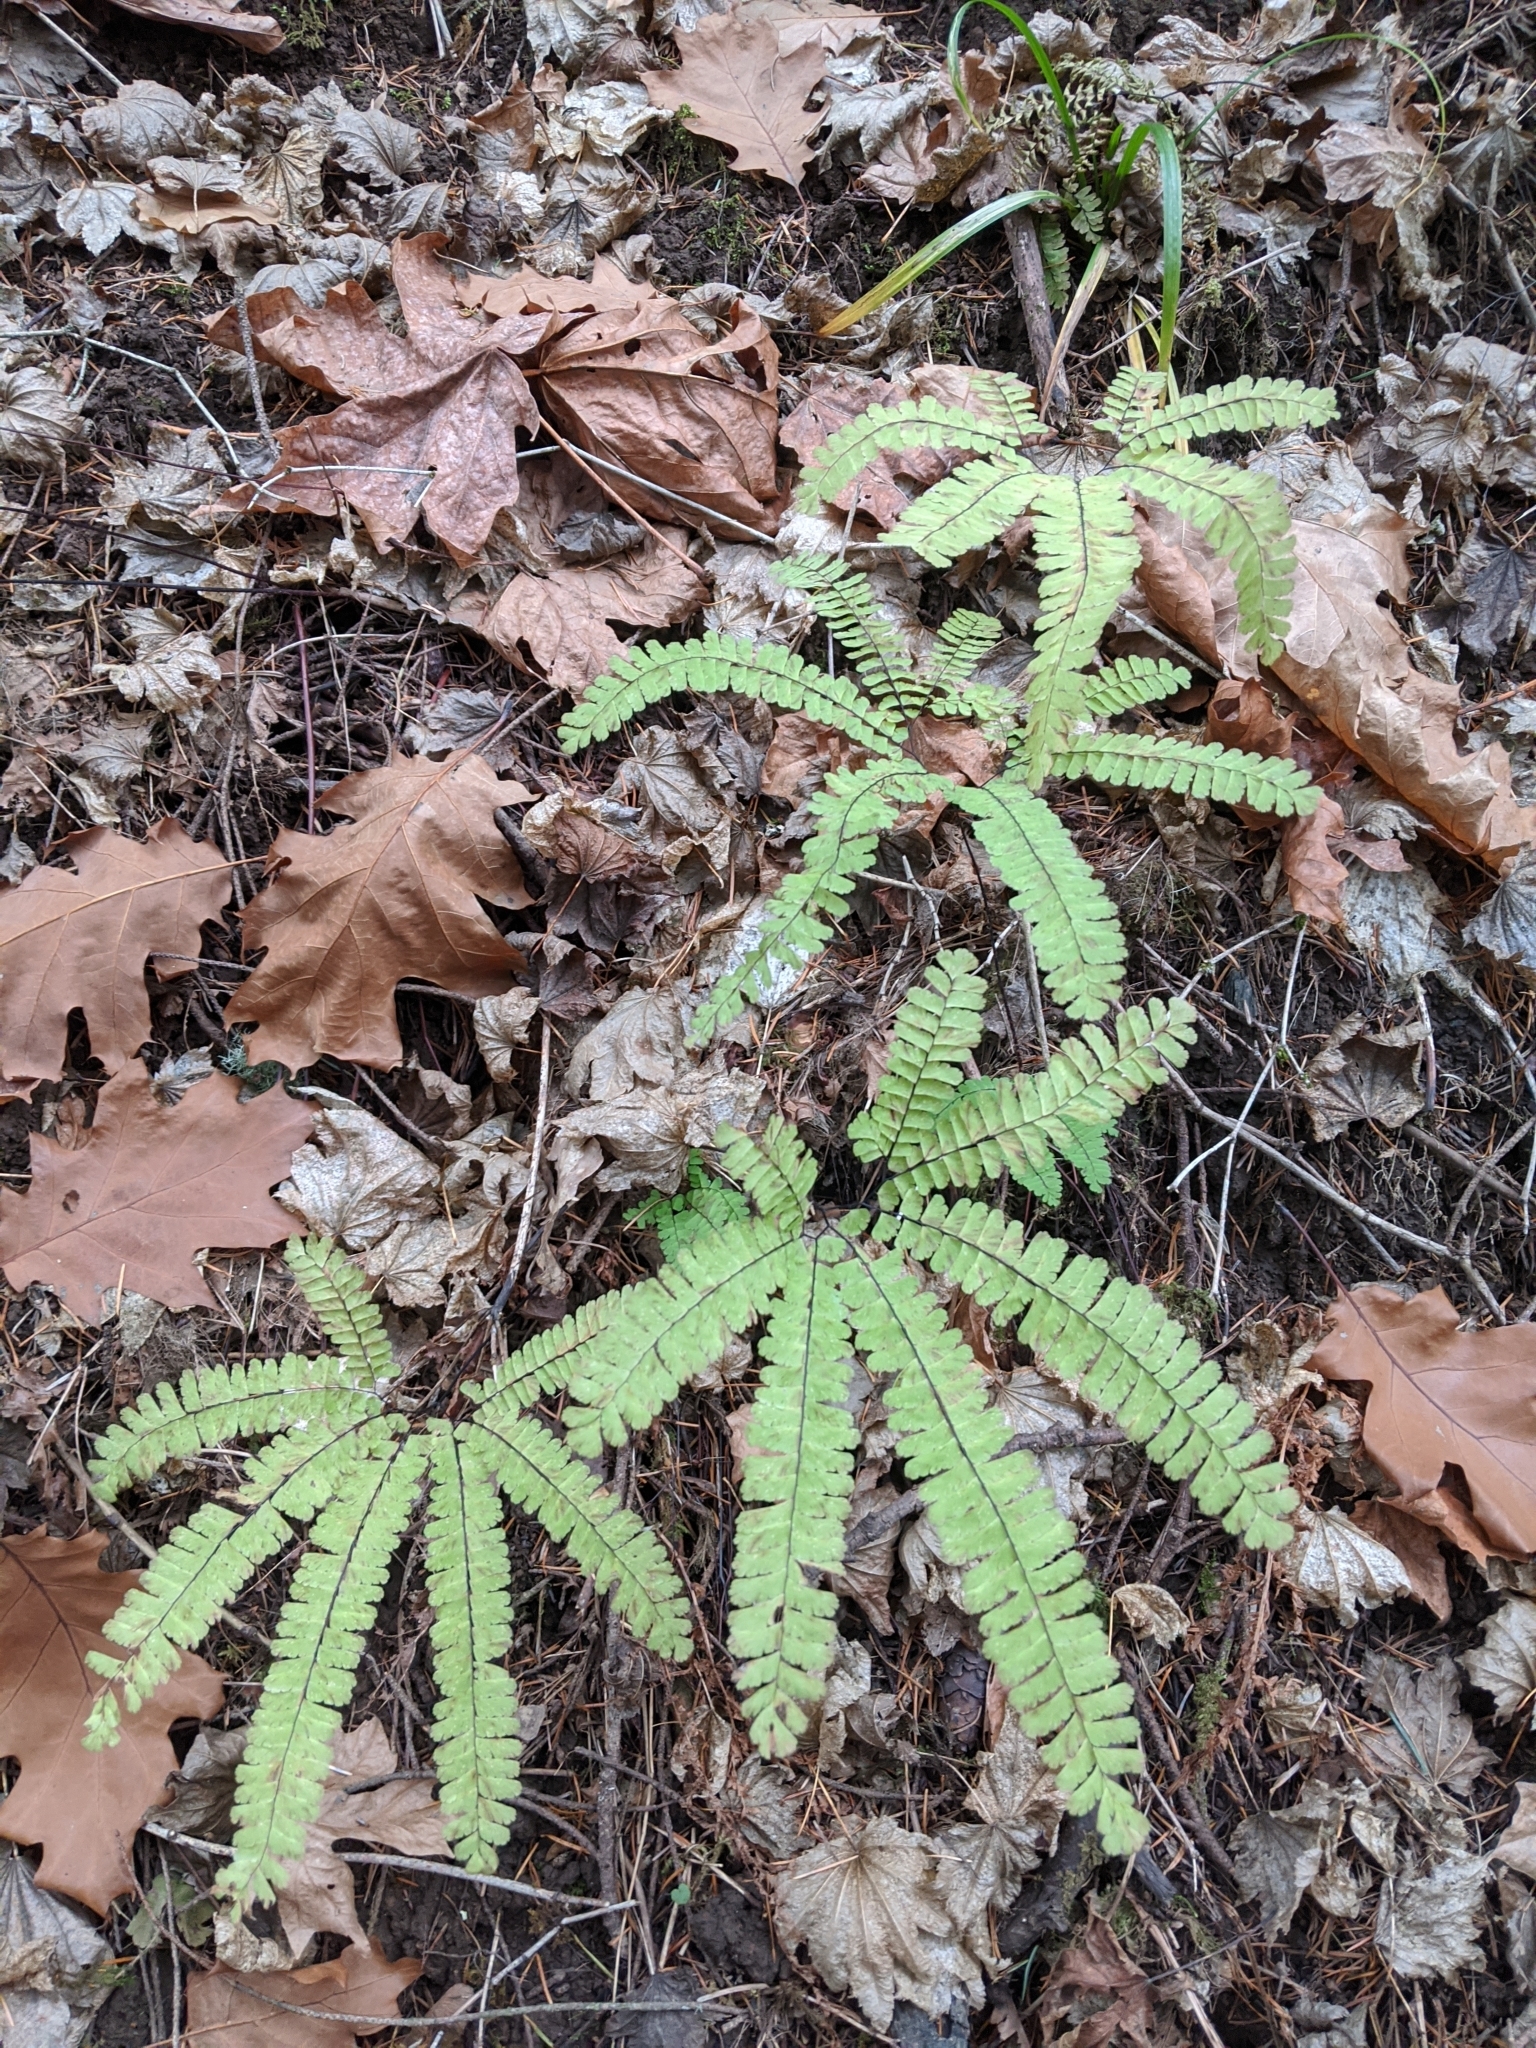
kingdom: Plantae
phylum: Tracheophyta
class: Polypodiopsida
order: Polypodiales
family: Pteridaceae
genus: Adiantum
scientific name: Adiantum aleuticum
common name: Aleutian maidenhair fern
